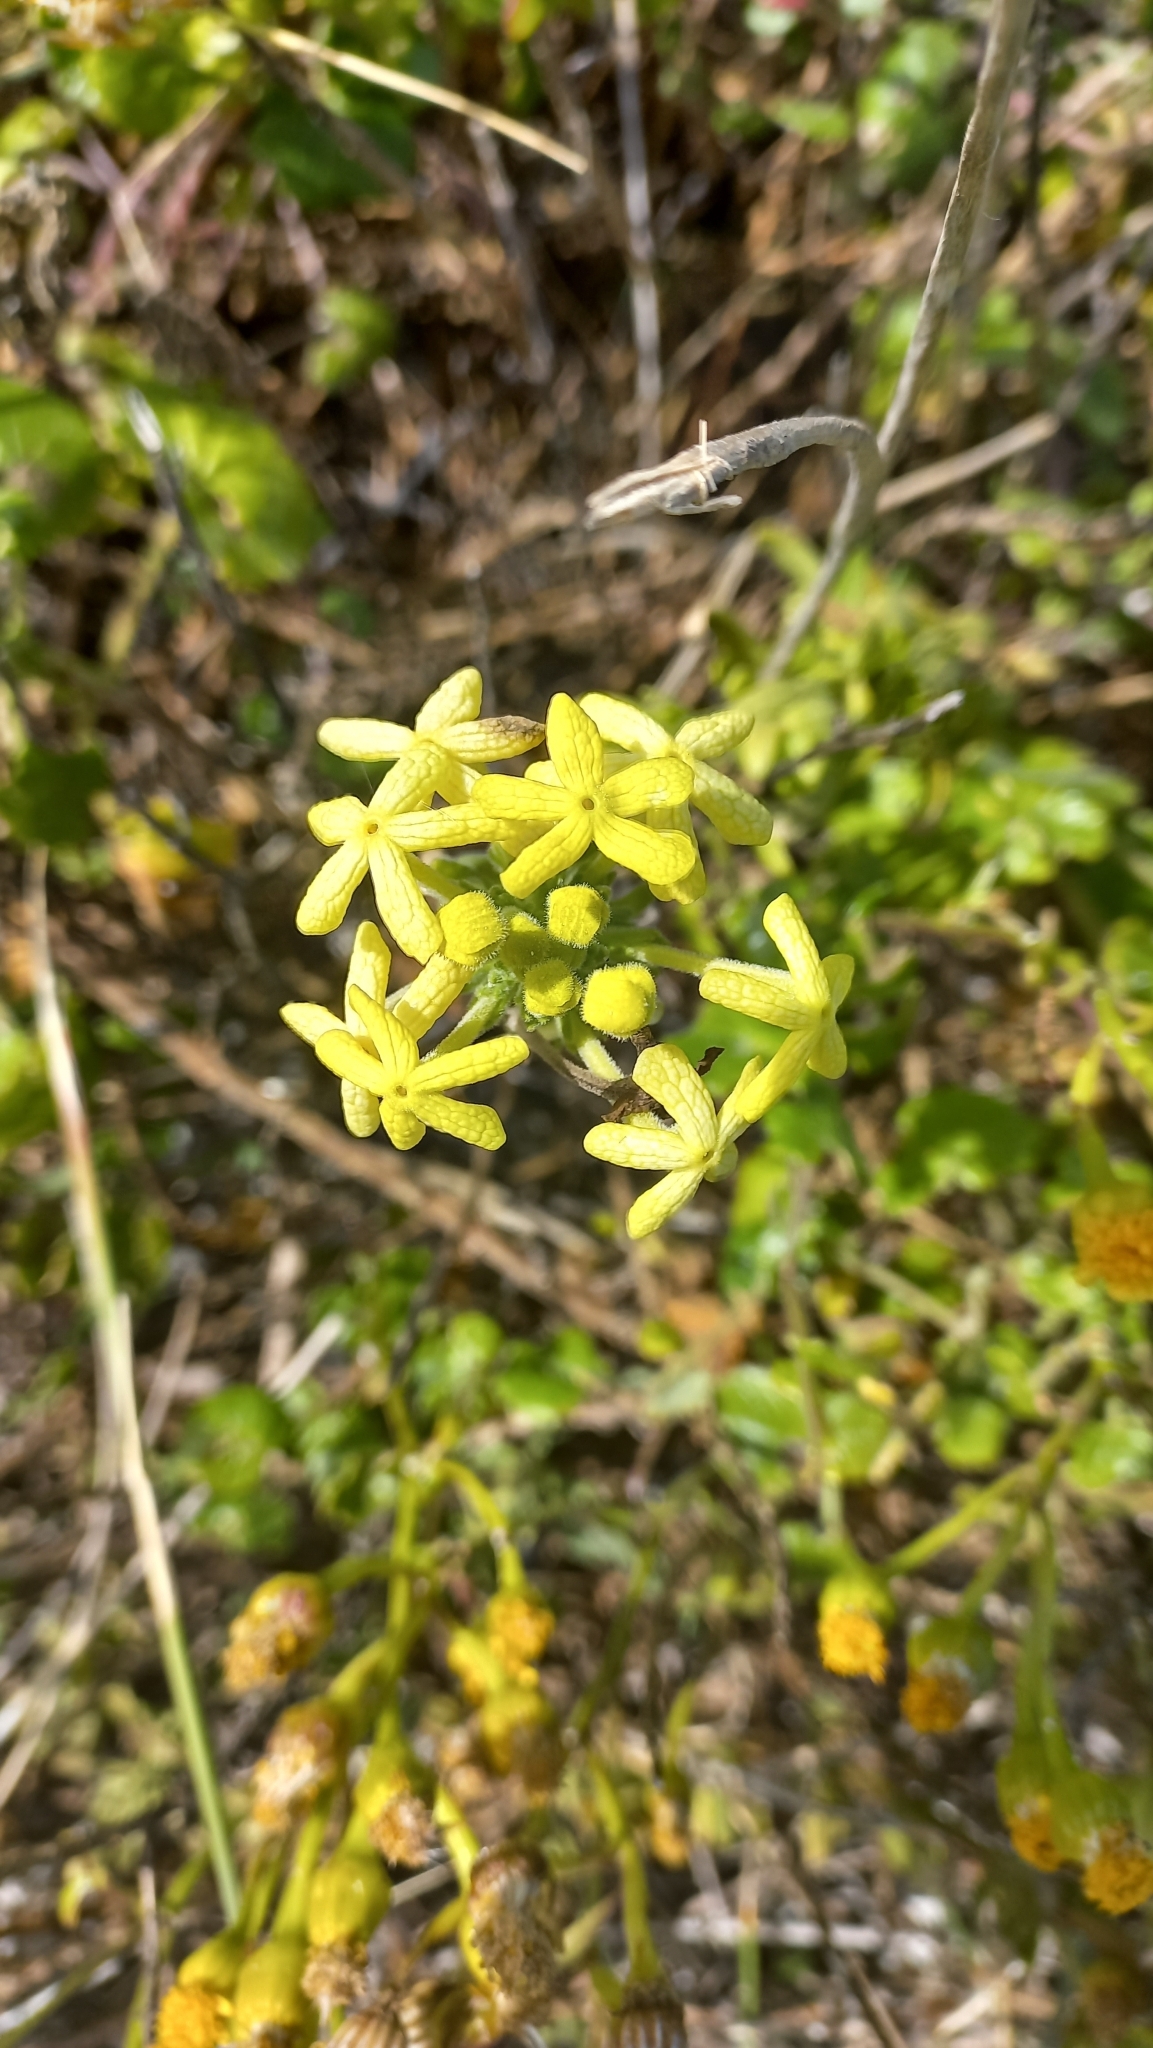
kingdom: Plantae
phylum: Tracheophyta
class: Magnoliopsida
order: Lamiales
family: Scrophulariaceae
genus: Lyperia
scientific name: Lyperia lychnidea
